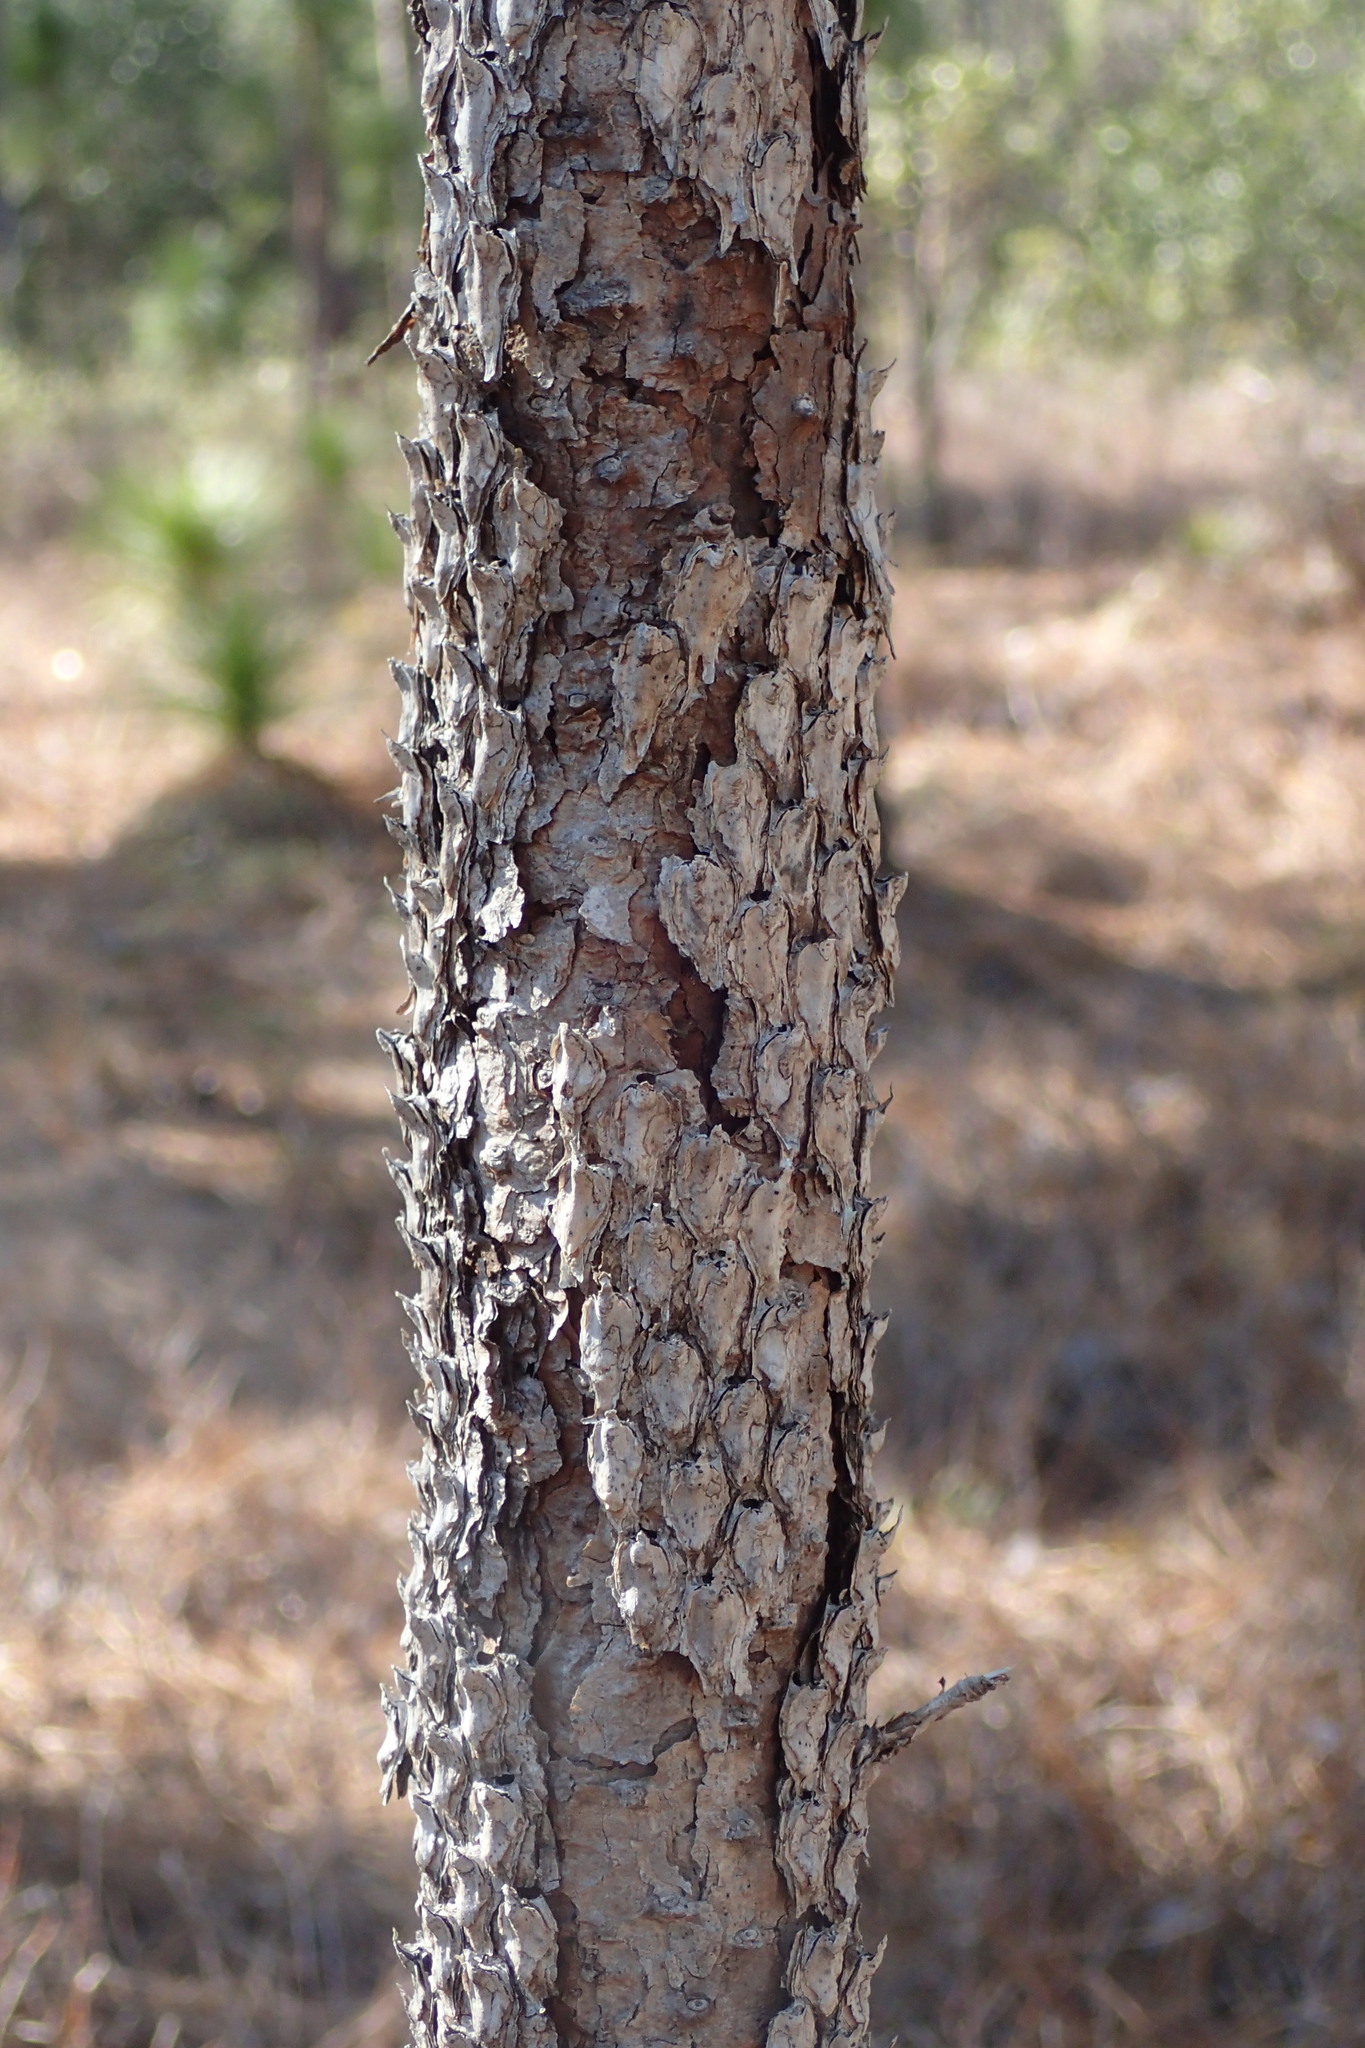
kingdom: Plantae
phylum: Tracheophyta
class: Pinopsida
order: Pinales
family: Pinaceae
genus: Pinus
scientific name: Pinus palustris
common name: Longleaf pine
